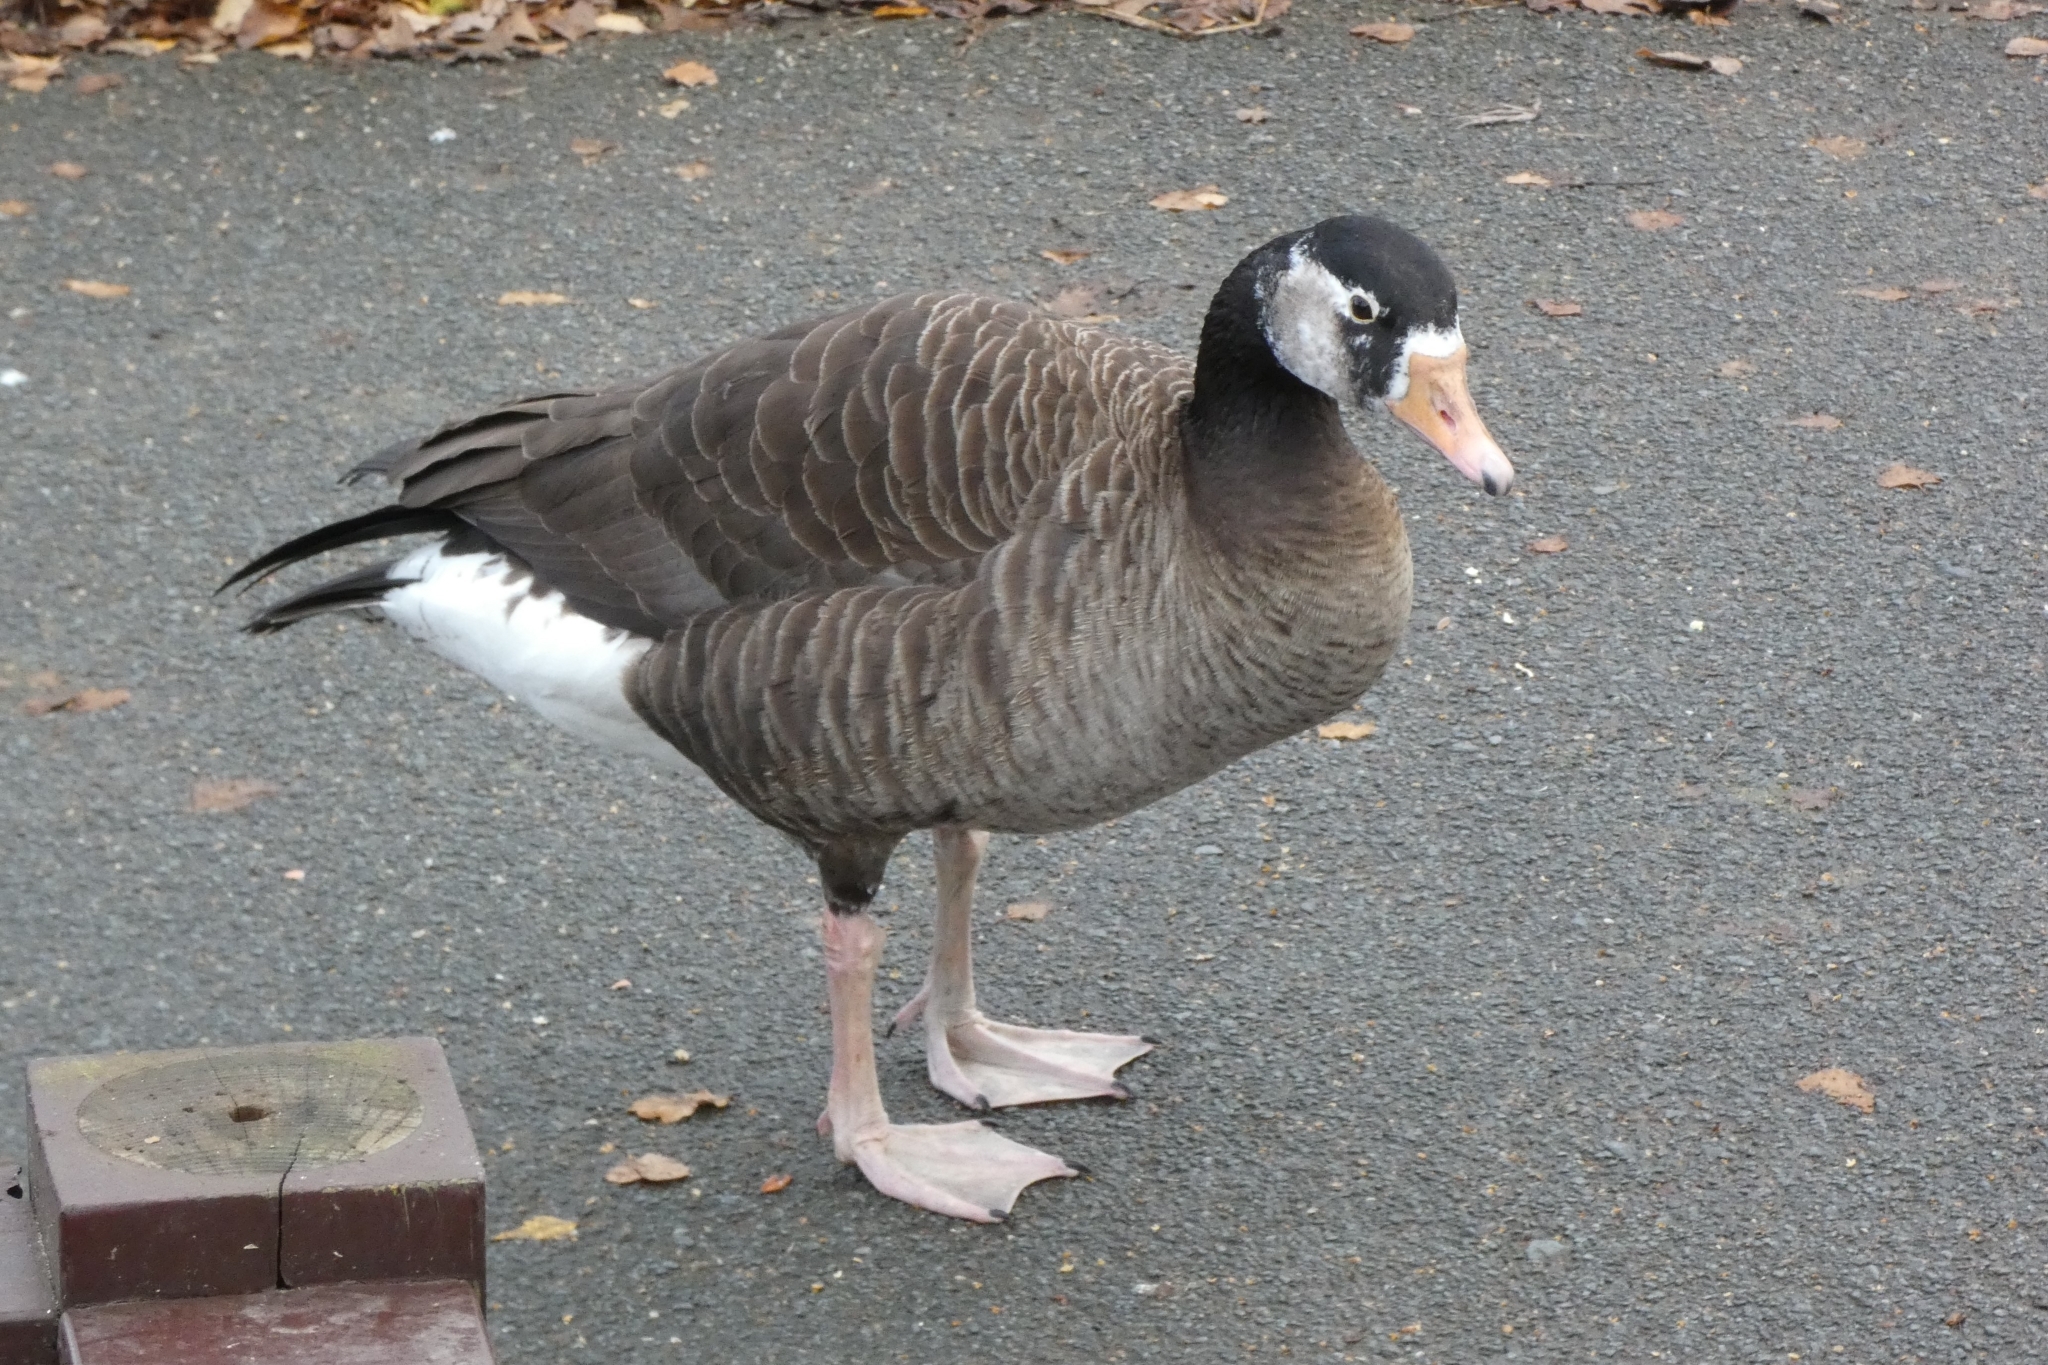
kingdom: Animalia
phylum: Chordata
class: Aves
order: Anseriformes
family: Anatidae
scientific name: Anatidae
